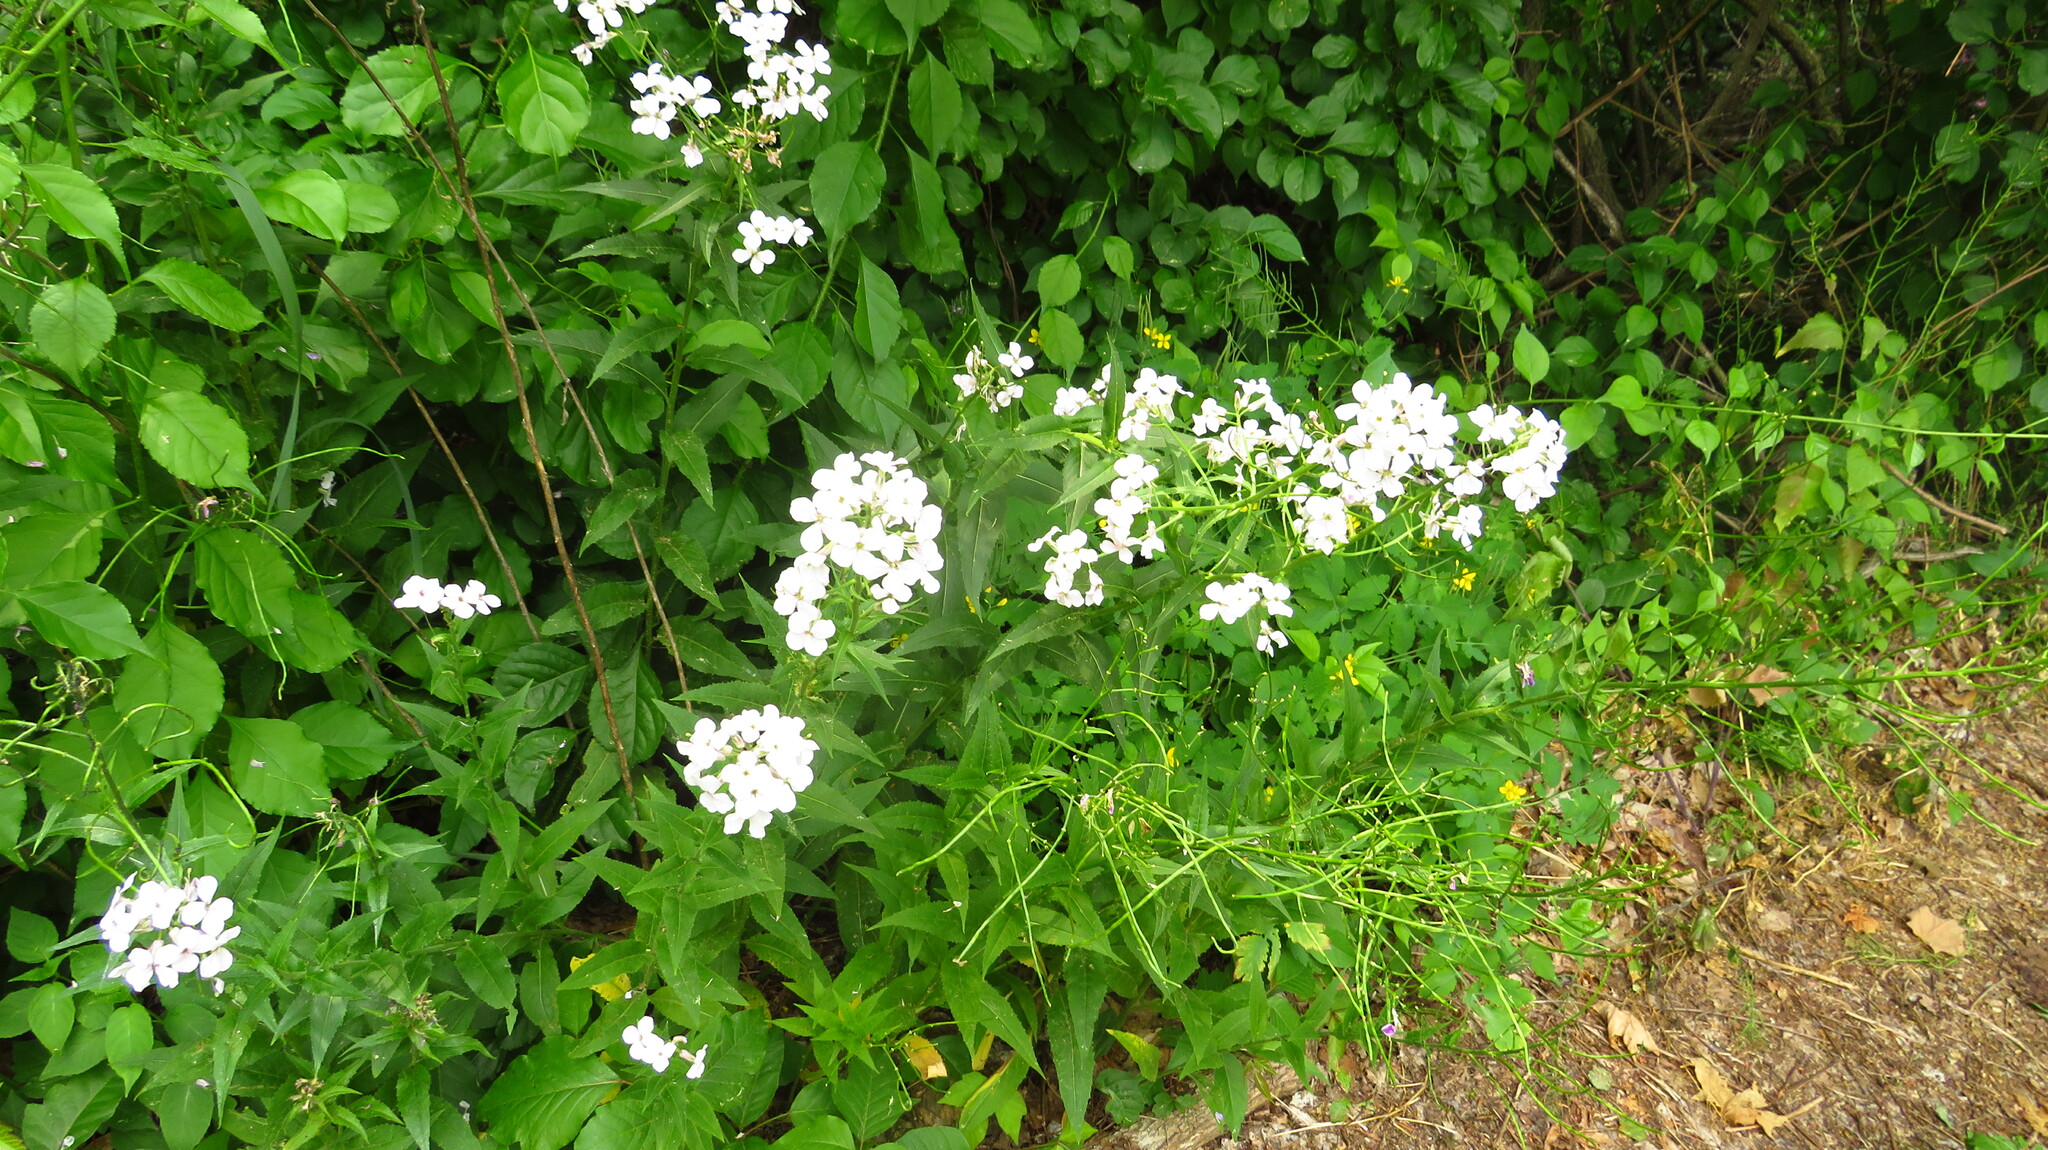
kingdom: Plantae
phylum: Tracheophyta
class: Magnoliopsida
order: Brassicales
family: Brassicaceae
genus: Hesperis
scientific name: Hesperis matronalis
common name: Dame's-violet
